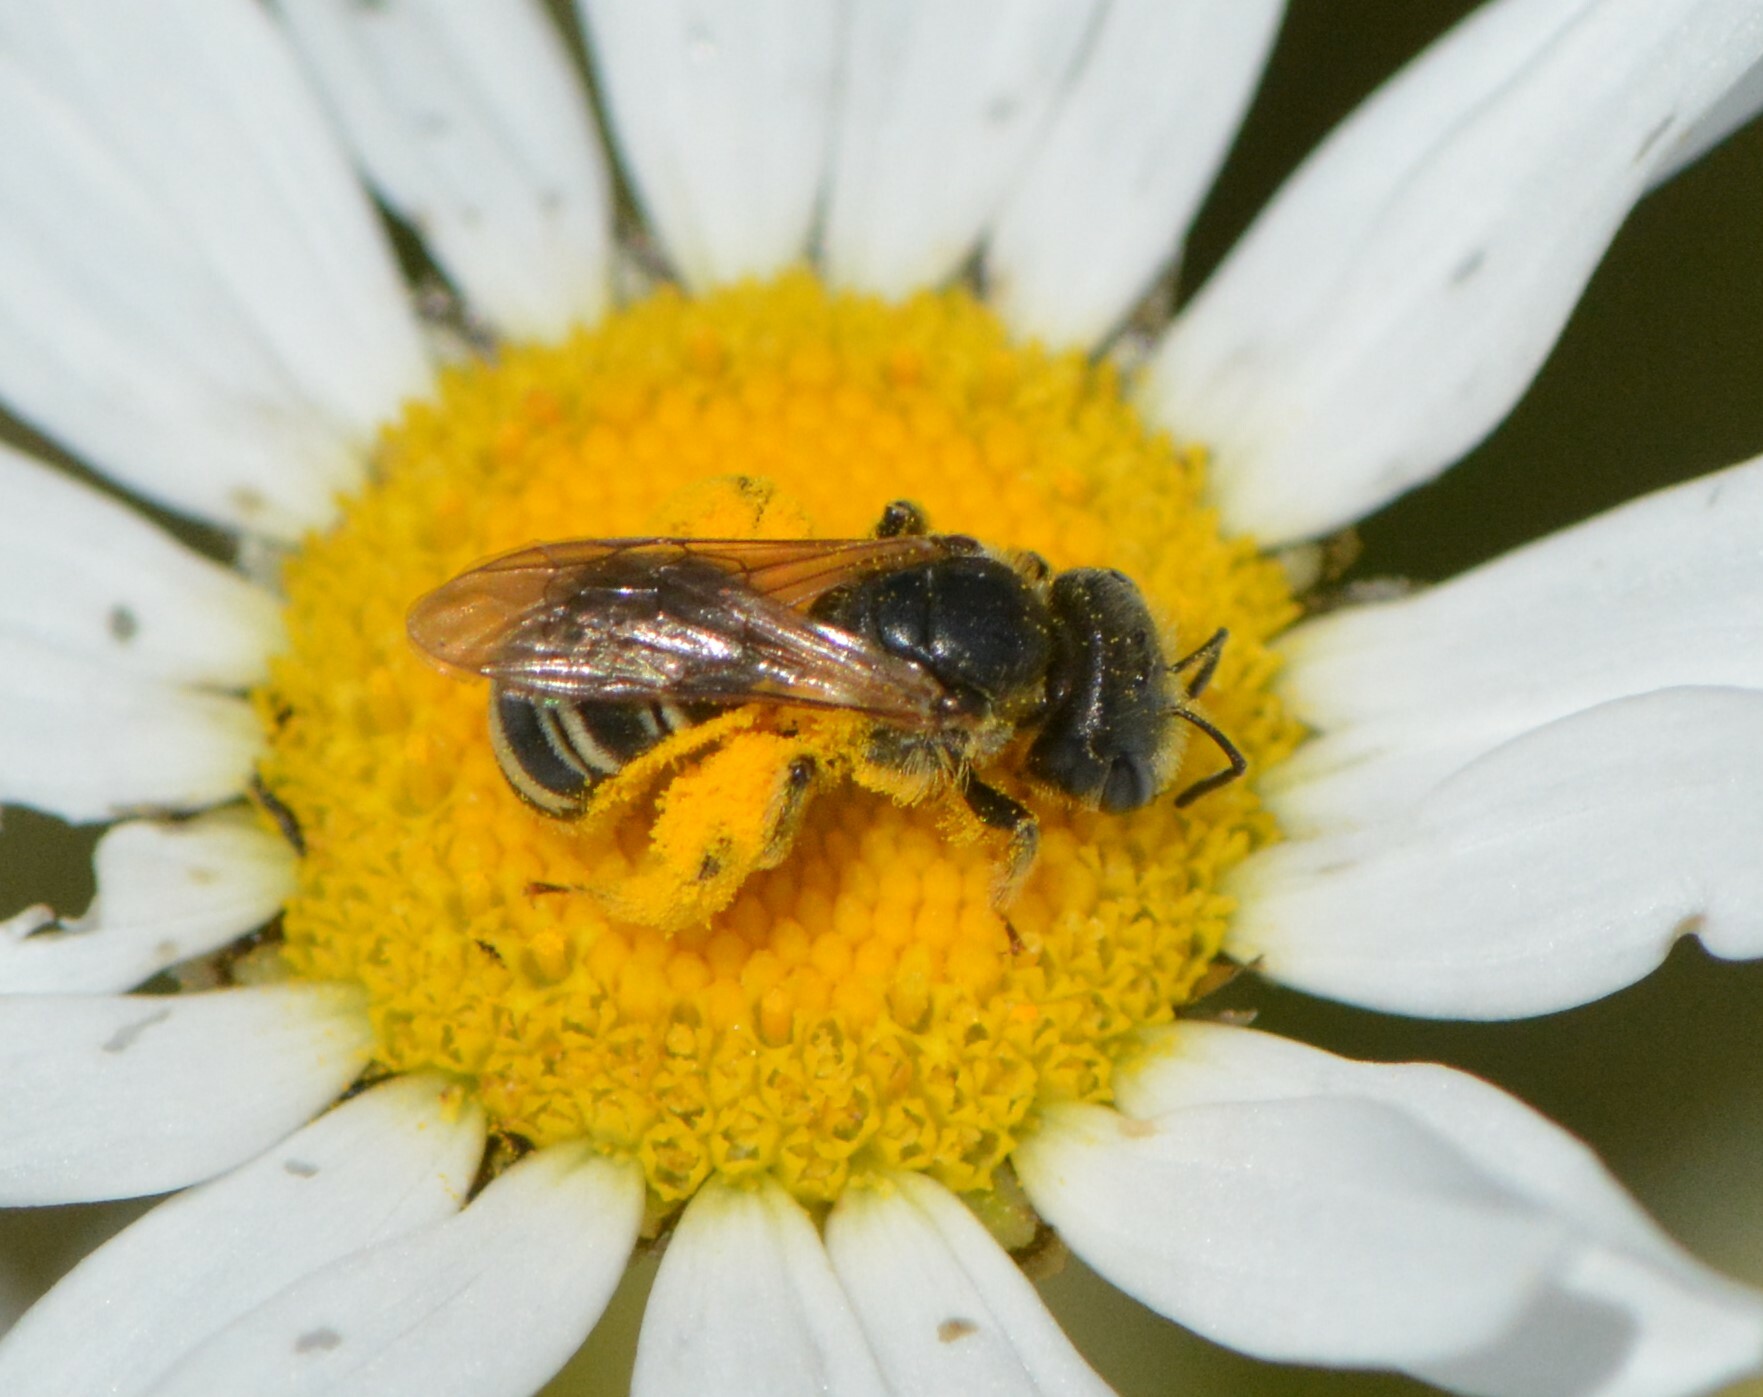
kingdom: Animalia
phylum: Arthropoda
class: Insecta
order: Hymenoptera
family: Halictidae
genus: Halictus
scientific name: Halictus ligatus
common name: Ligated furrow bee
